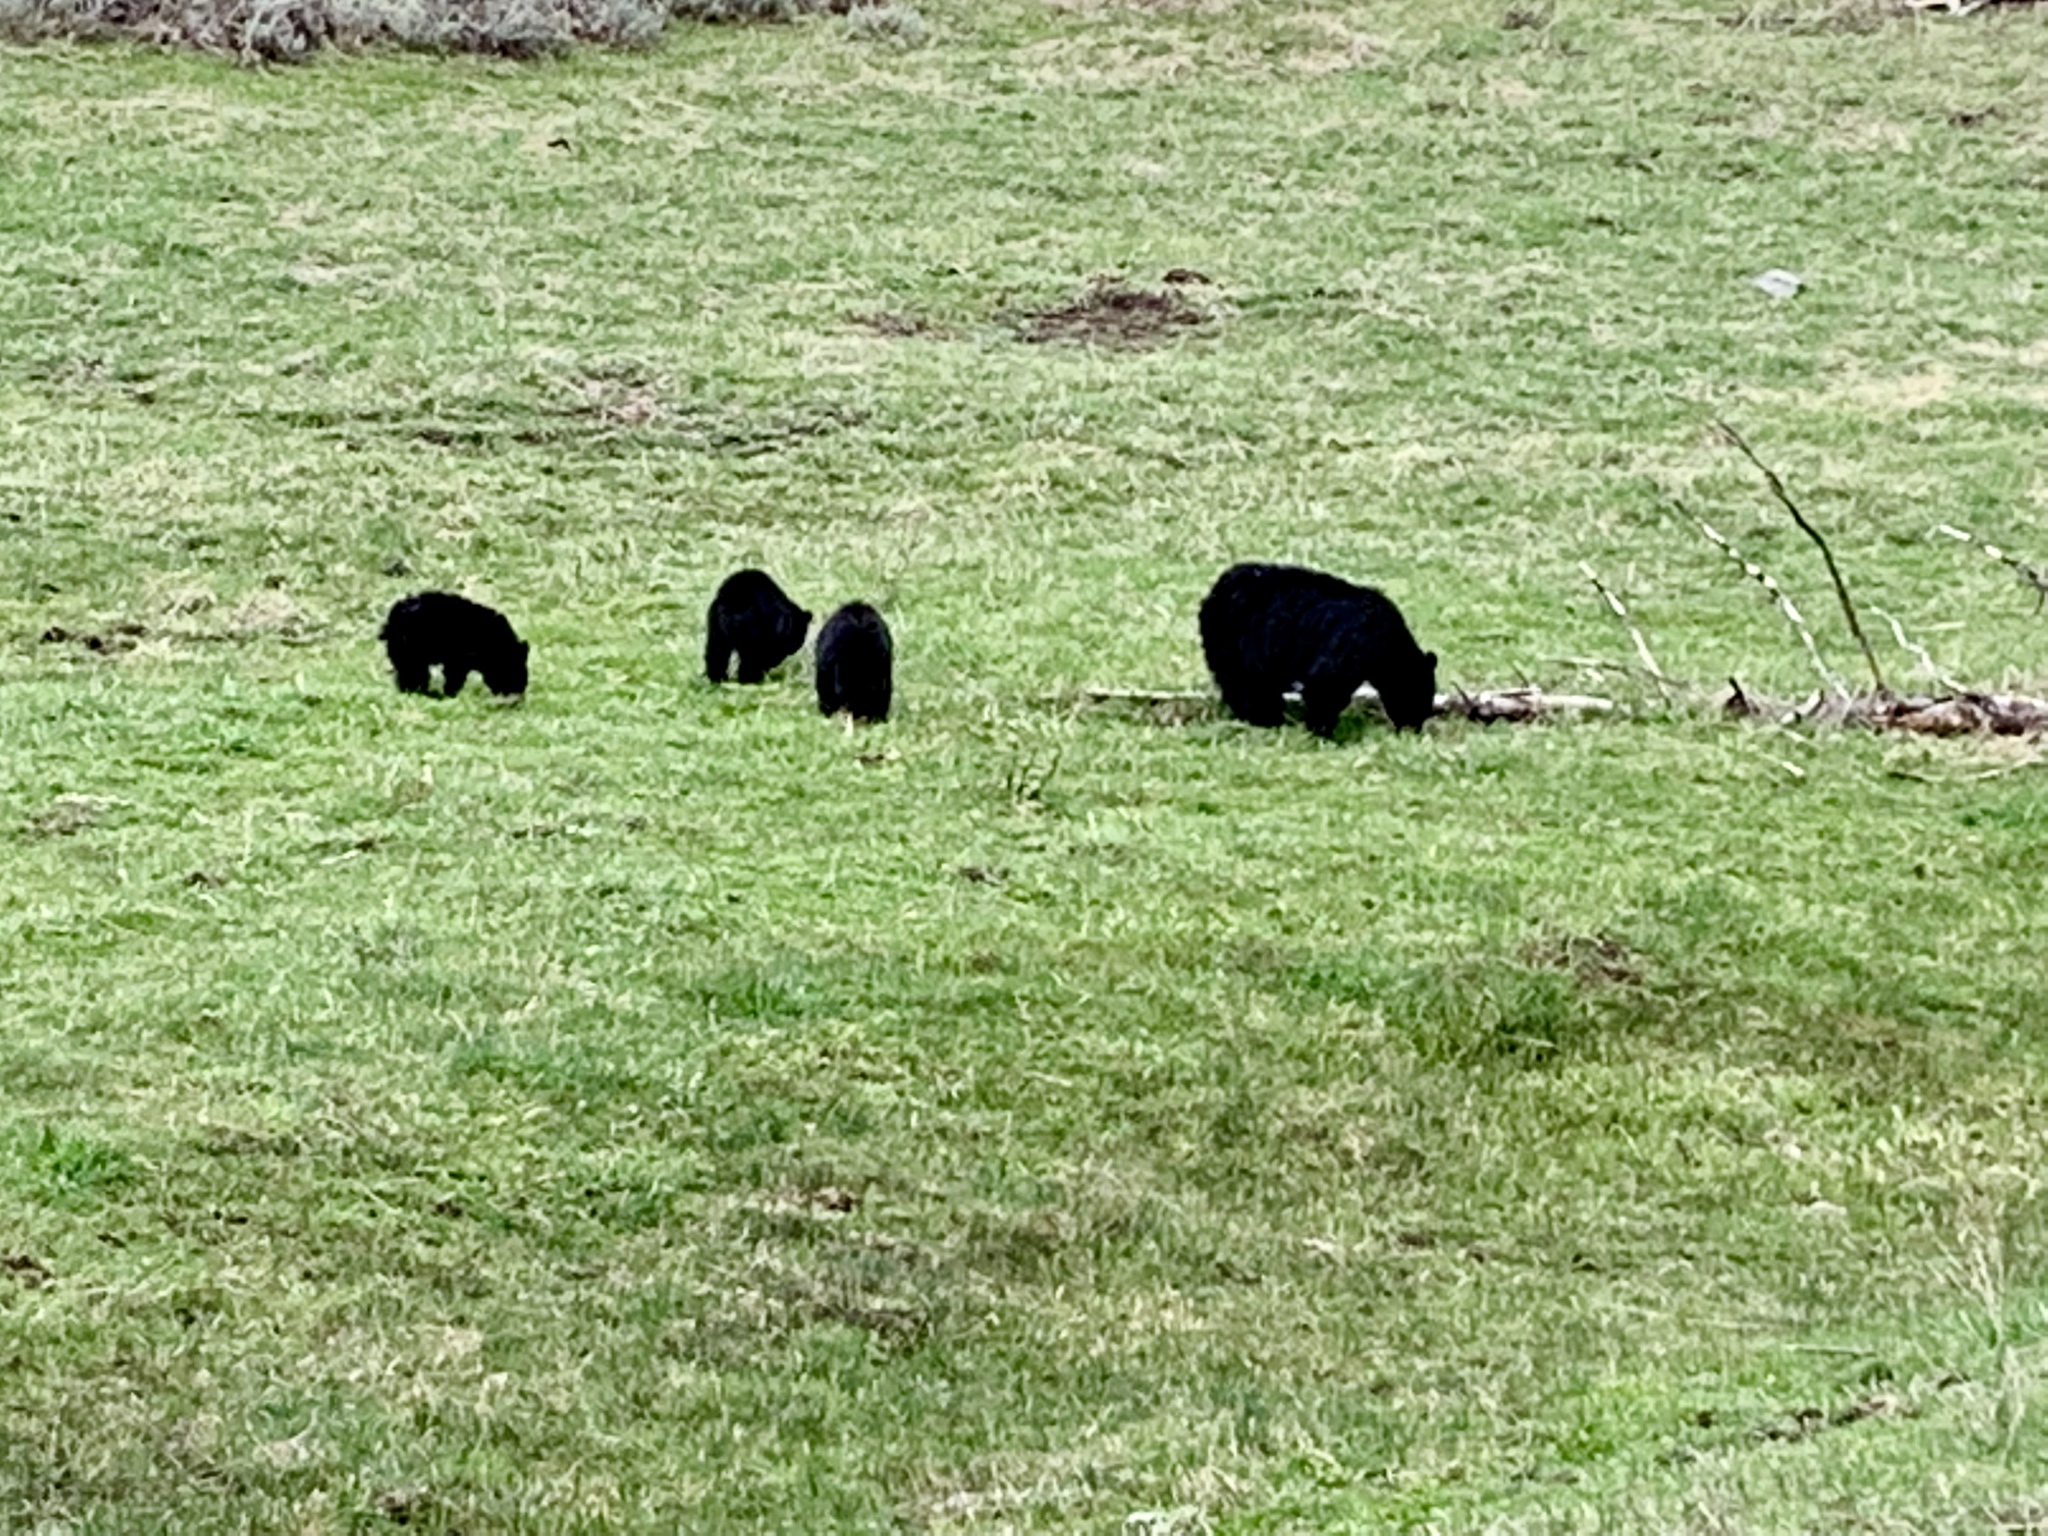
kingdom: Animalia
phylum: Chordata
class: Mammalia
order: Carnivora
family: Ursidae
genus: Ursus
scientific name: Ursus americanus
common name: American black bear
